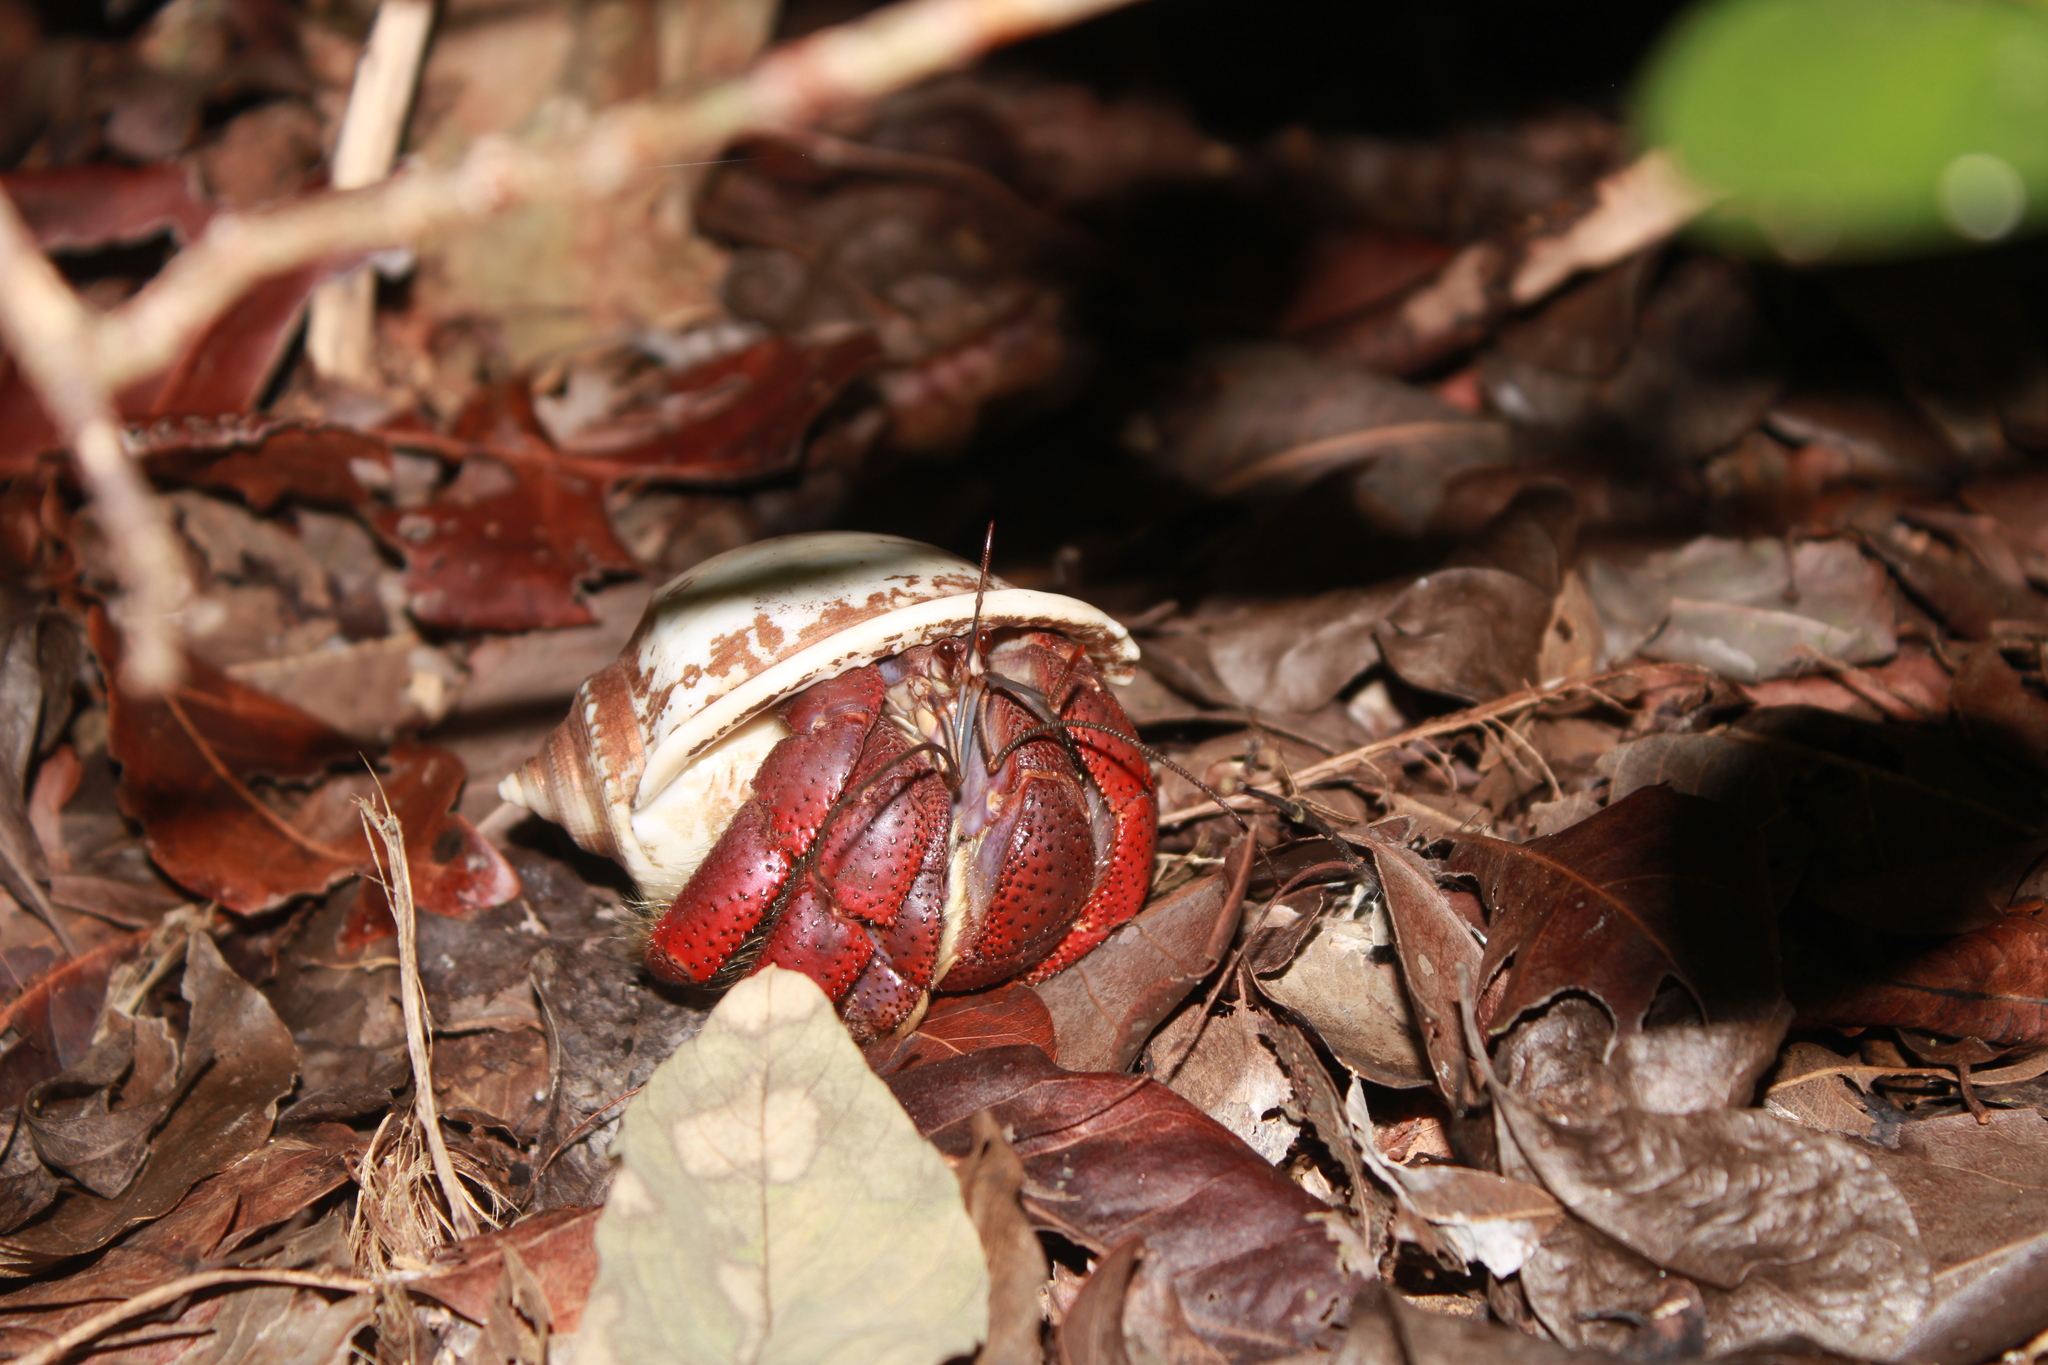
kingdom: Animalia
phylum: Arthropoda
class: Malacostraca
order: Decapoda
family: Coenobitidae
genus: Coenobita
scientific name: Coenobita clypeatus
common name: Caribbean hermit crab
